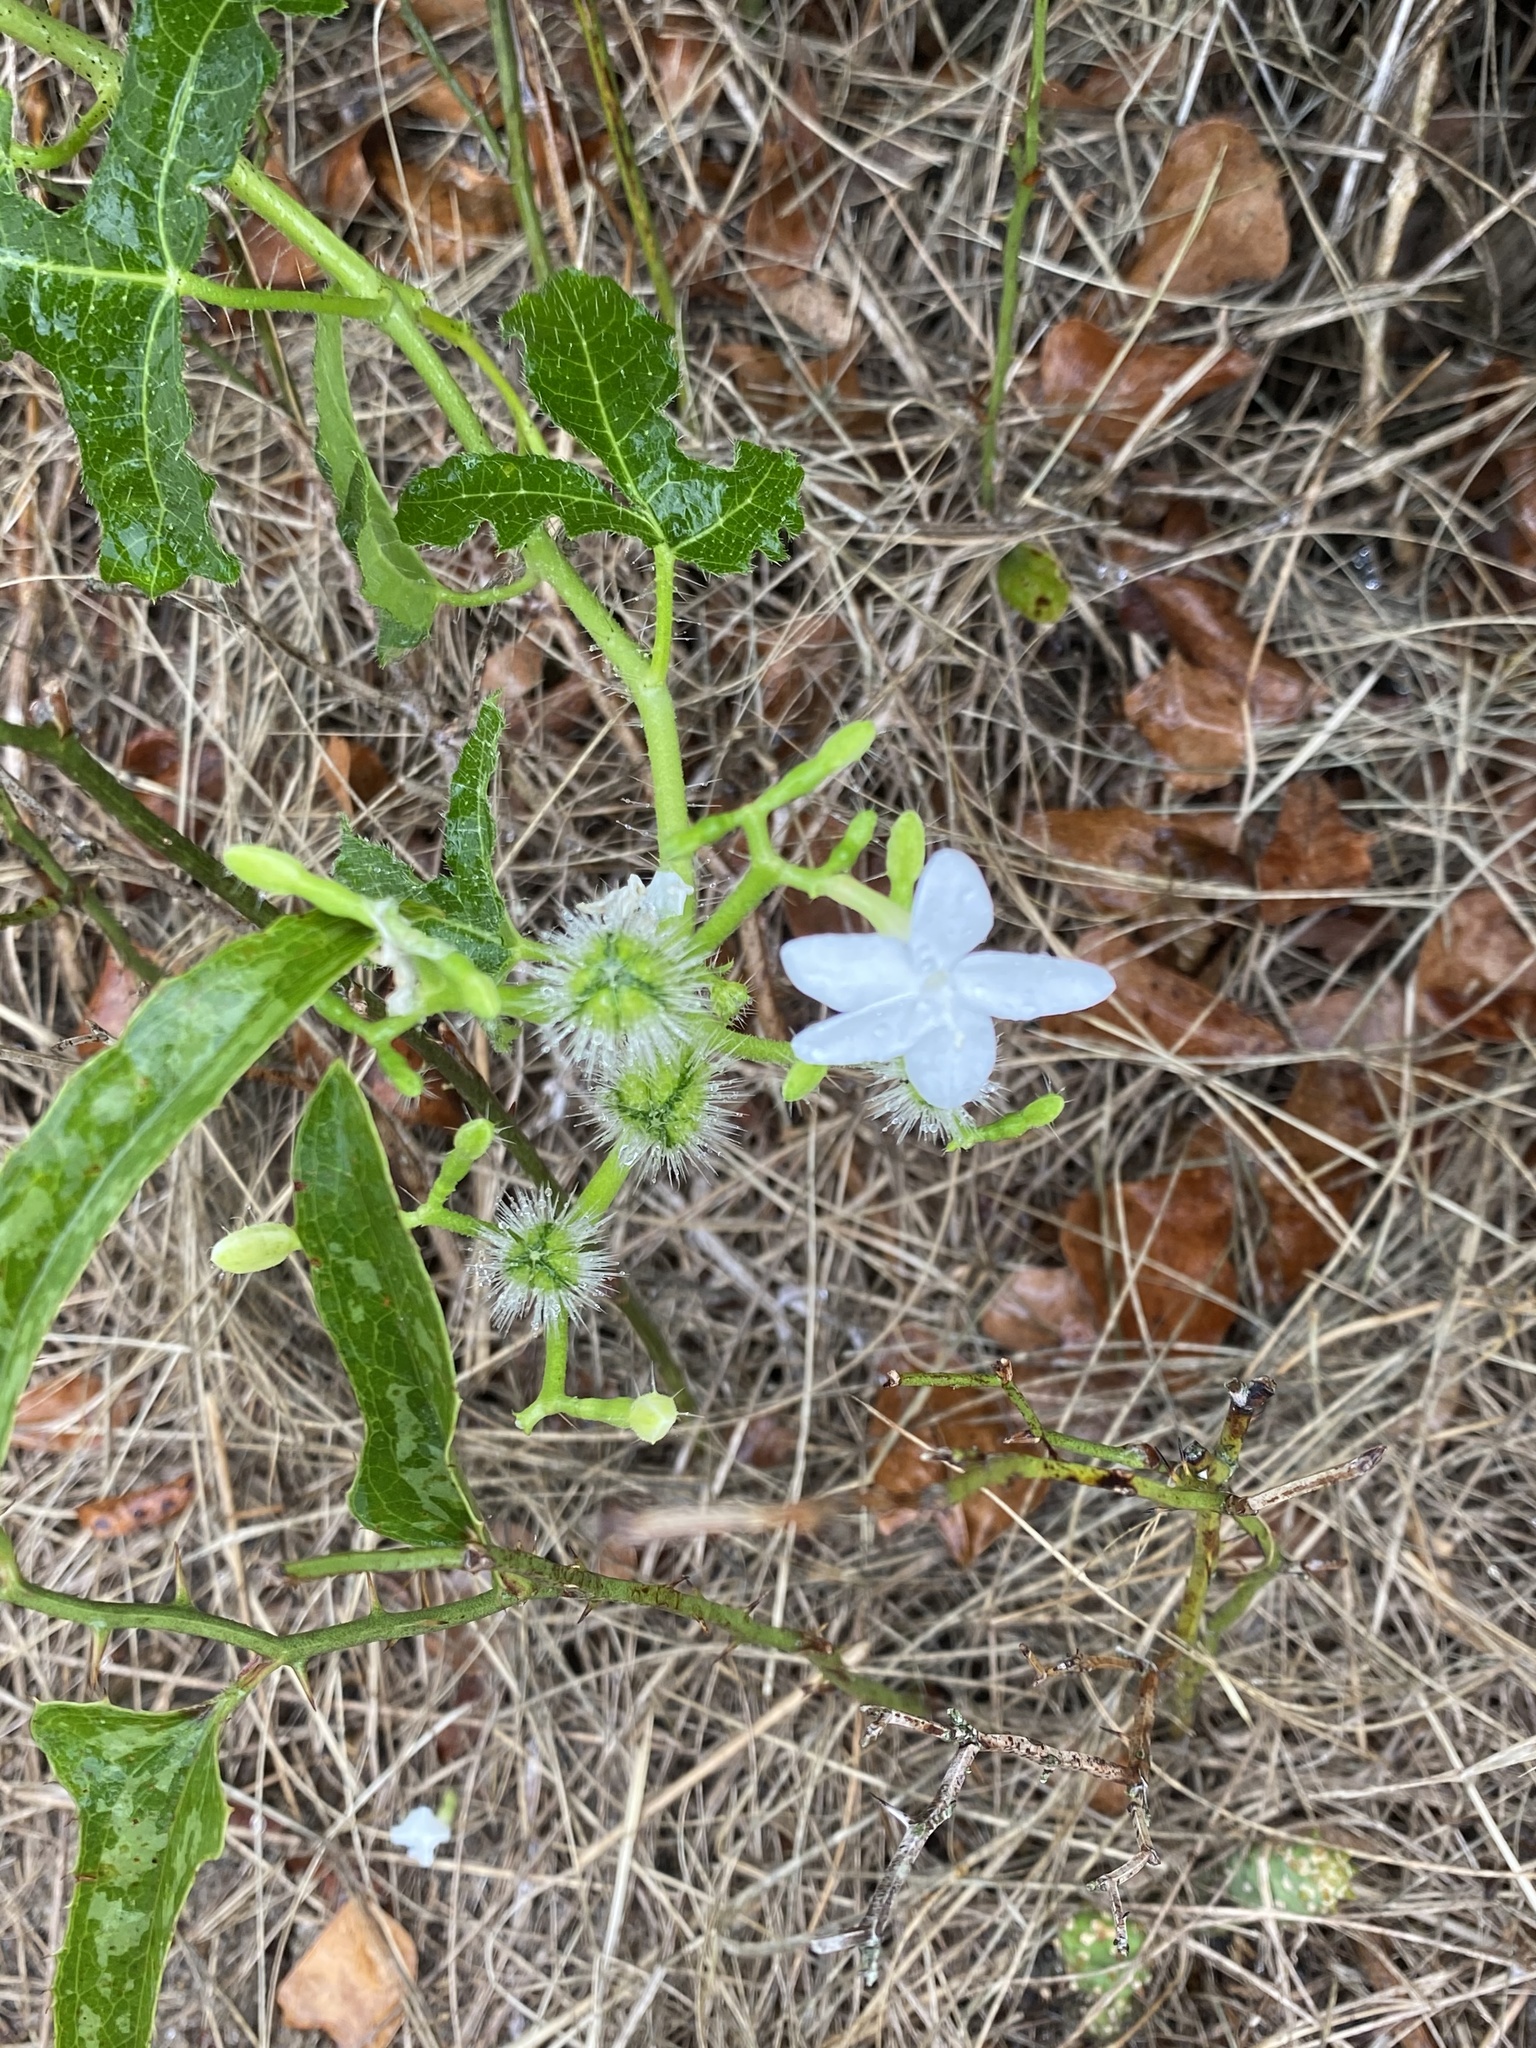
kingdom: Plantae
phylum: Tracheophyta
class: Magnoliopsida
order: Malpighiales
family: Euphorbiaceae
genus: Cnidoscolus
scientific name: Cnidoscolus stimulosus
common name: Bull-nettle
